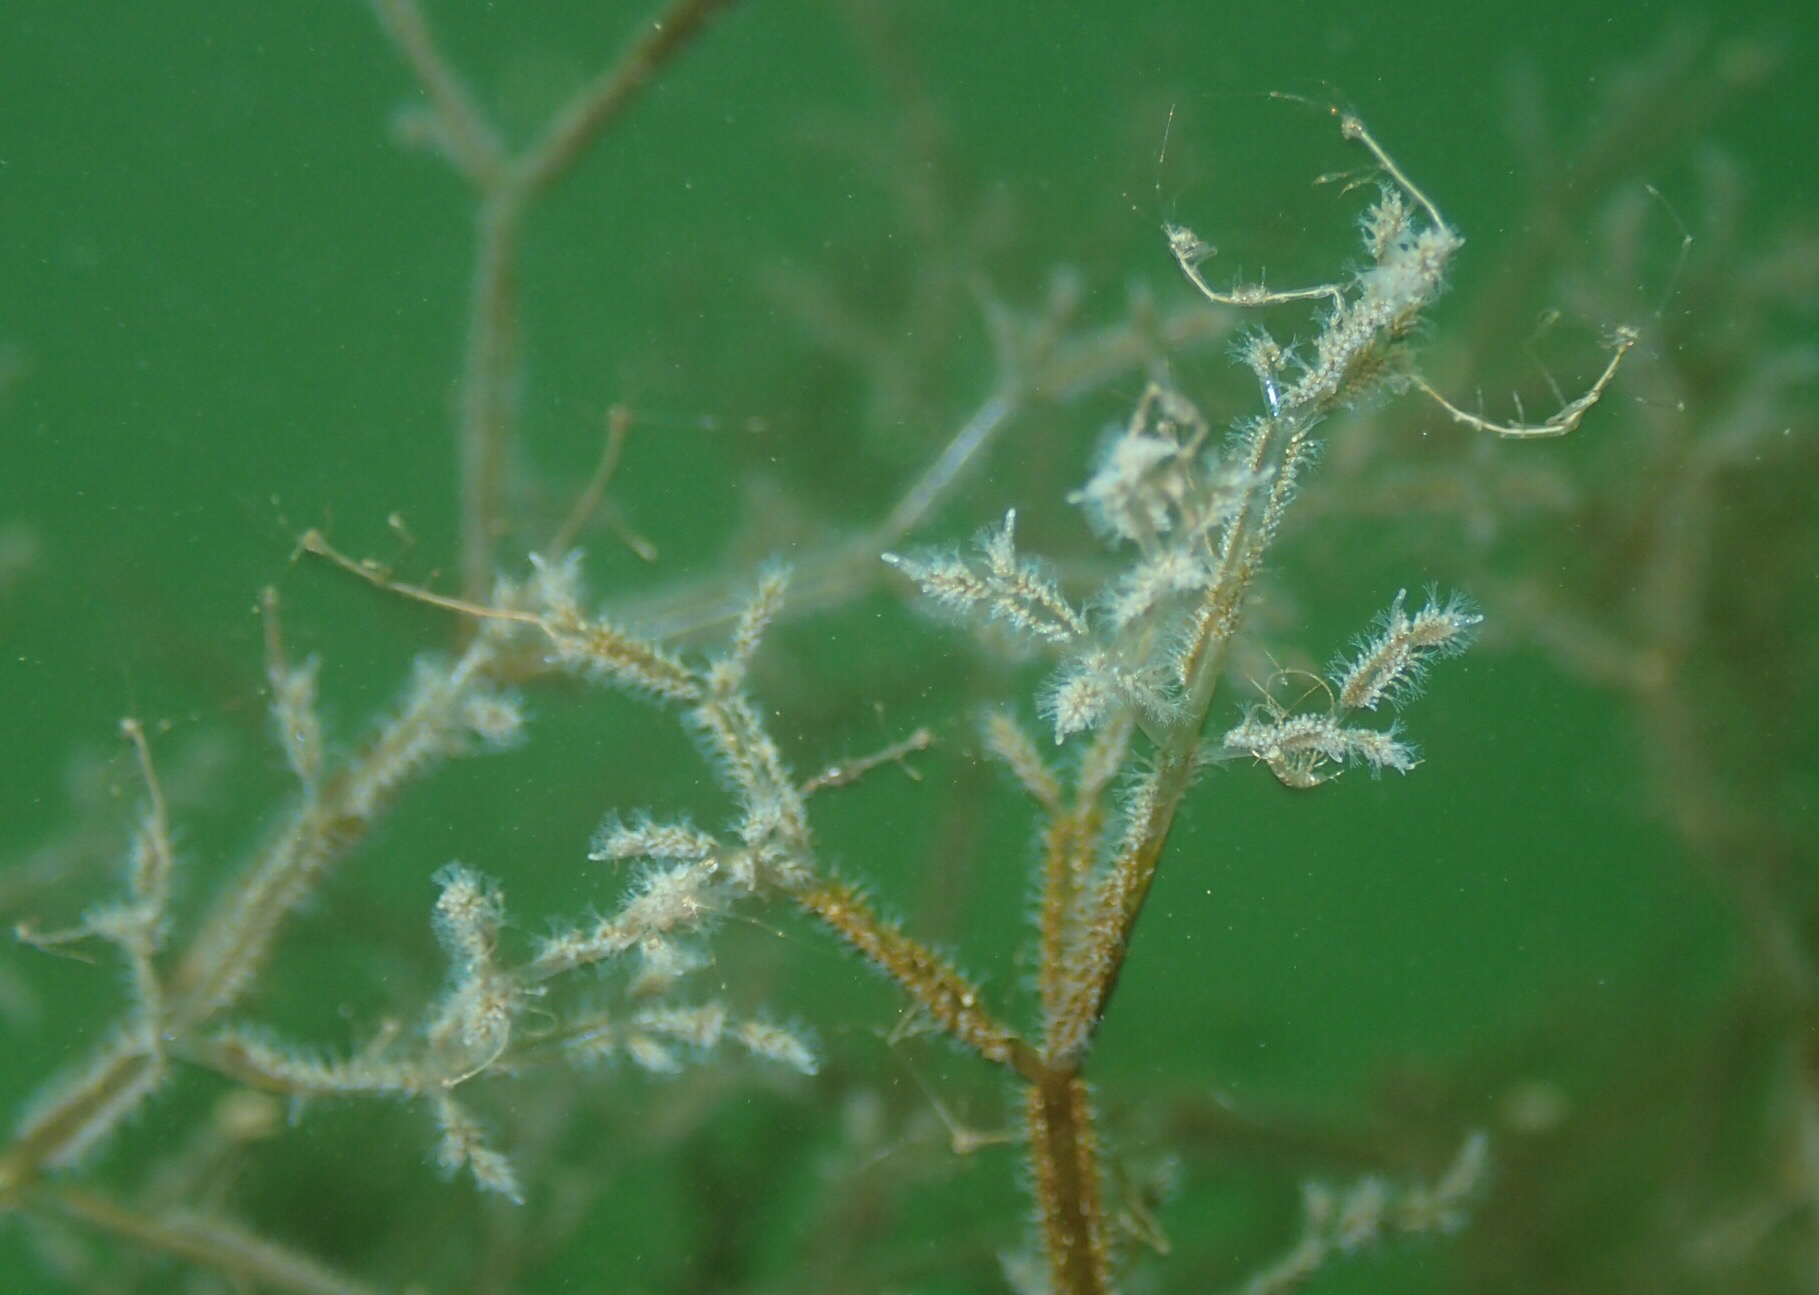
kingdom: Animalia
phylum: Bryozoa
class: Gymnolaemata
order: Ctenostomatida
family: Vesiculariidae
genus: Amathia
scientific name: Amathia verticillata
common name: Whorled zoobotryon
